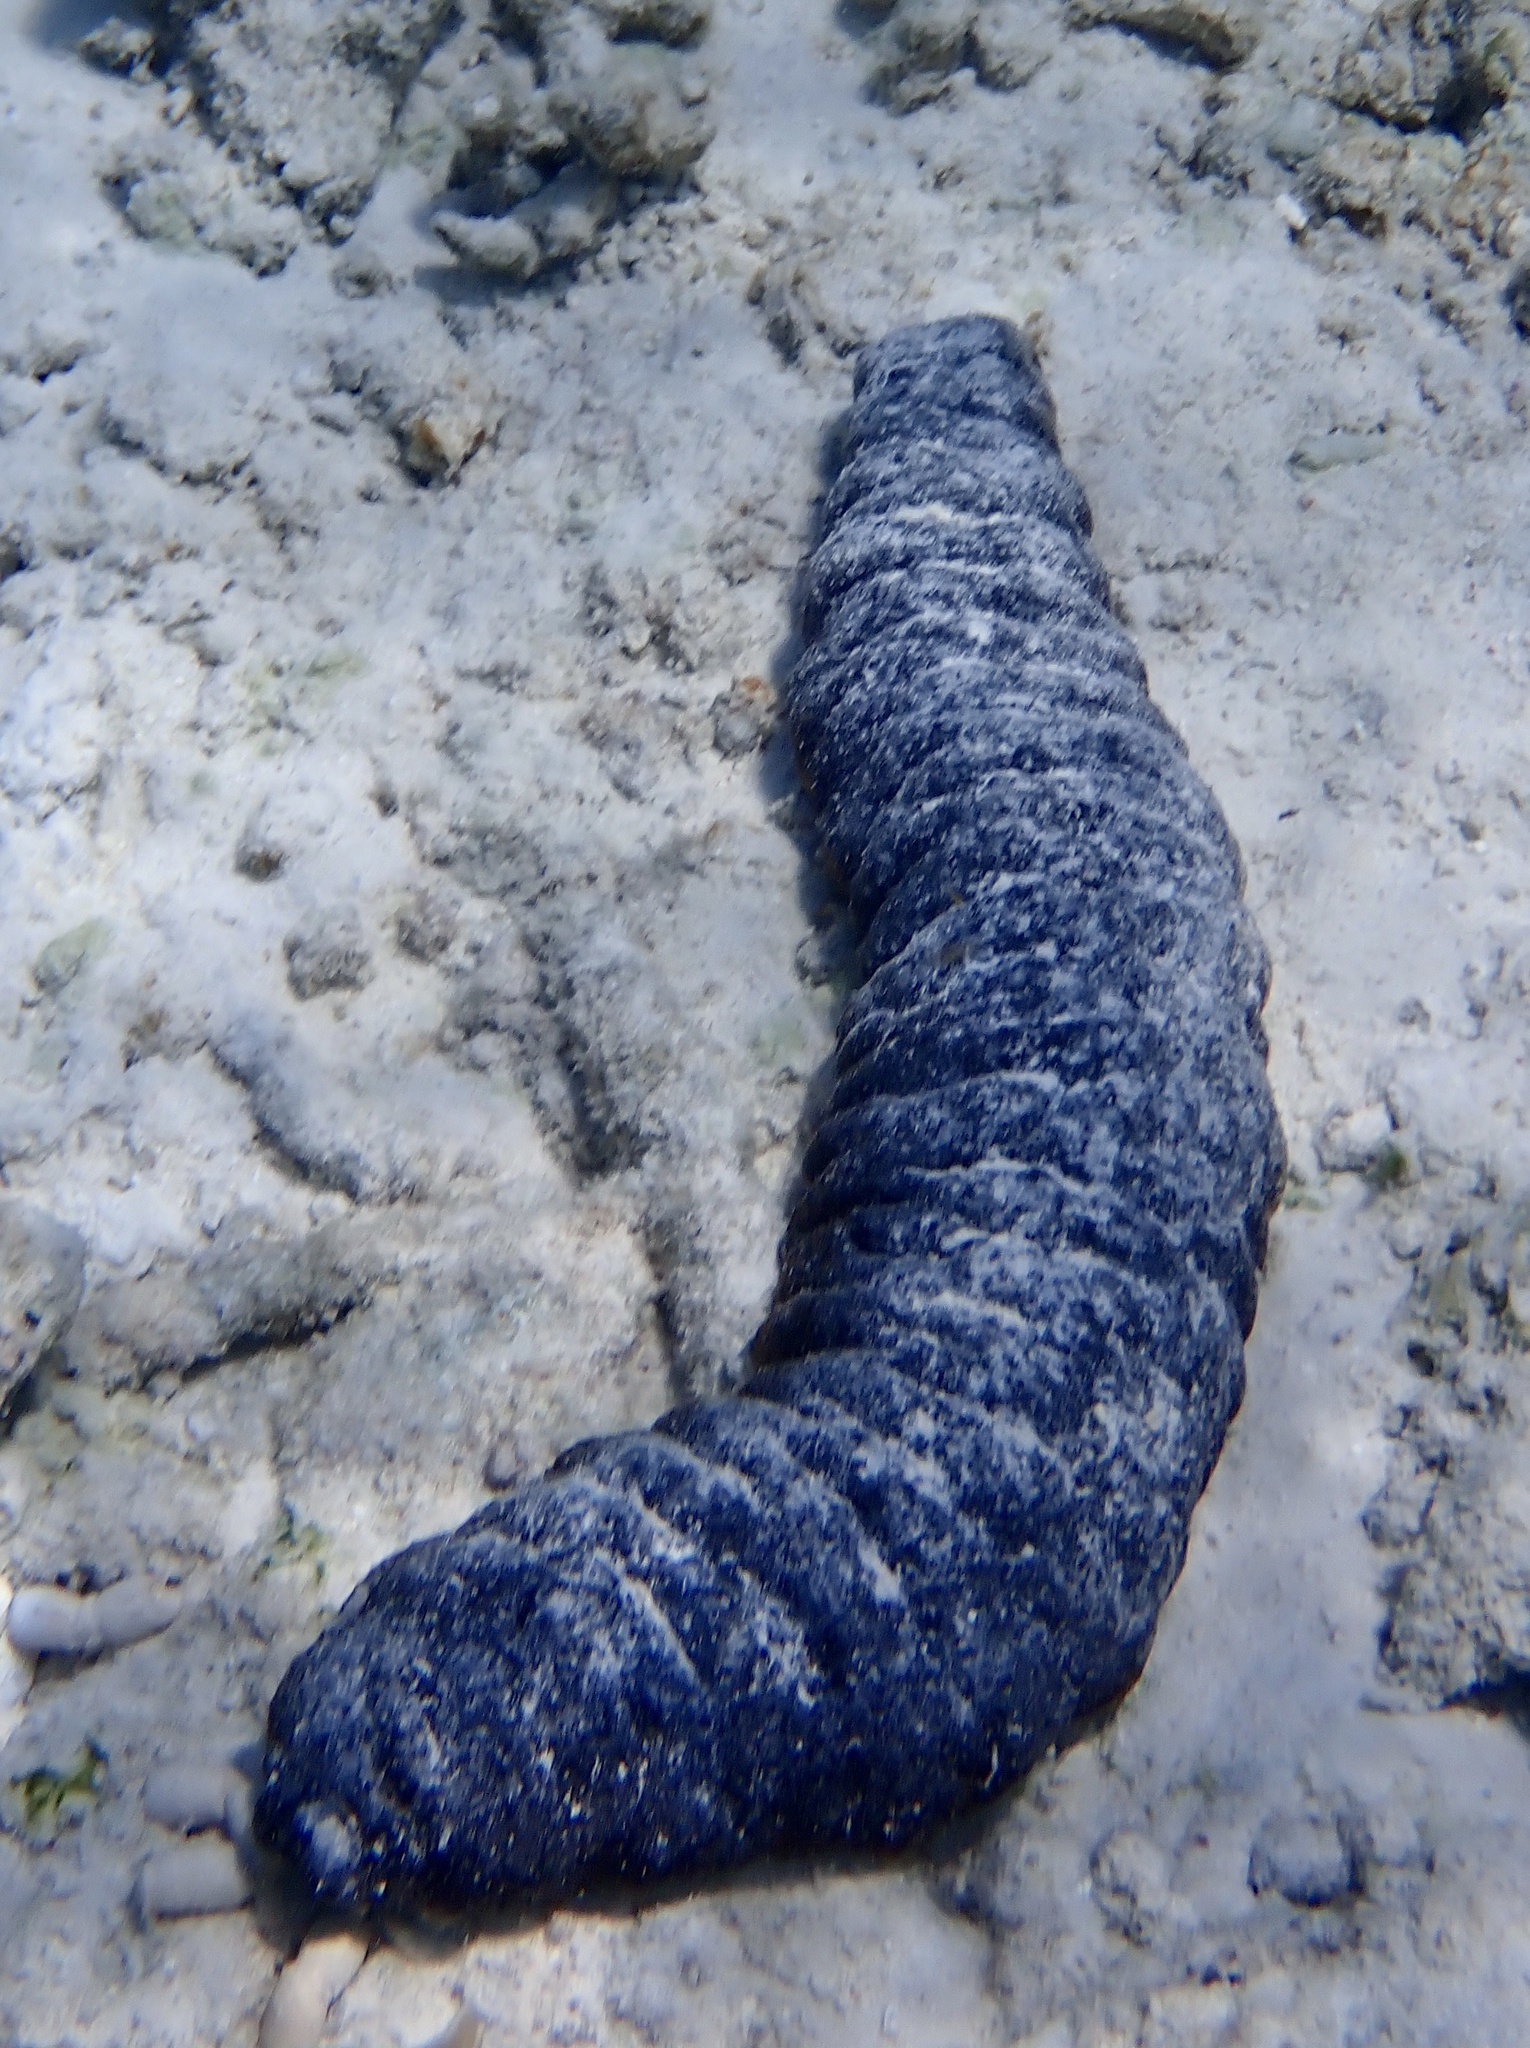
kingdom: Animalia
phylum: Echinodermata
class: Holothuroidea
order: Holothuriida
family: Holothuriidae
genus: Holothuria
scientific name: Holothuria mexicana
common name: Donkey dung sea cucumber
